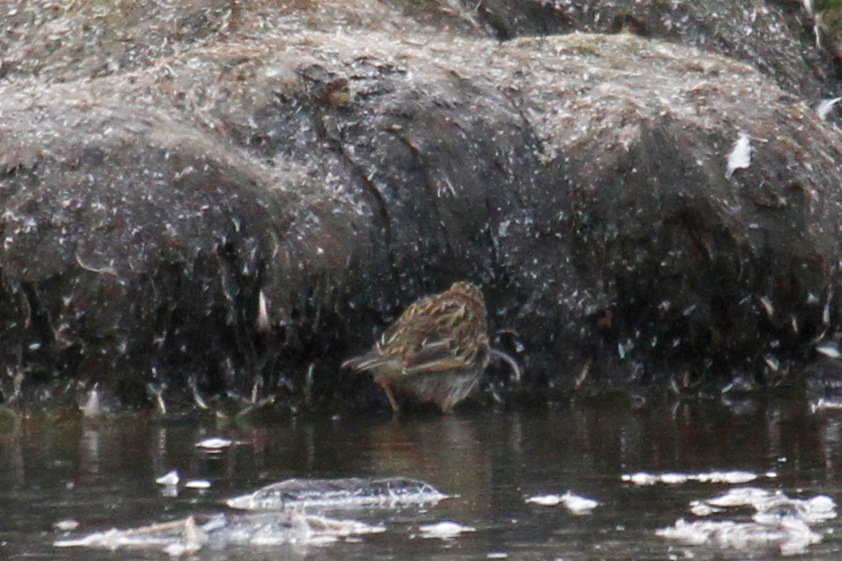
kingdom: Animalia
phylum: Chordata
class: Aves
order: Passeriformes
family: Motacillidae
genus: Anthus
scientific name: Anthus antarcticus
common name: South georgia pipit
